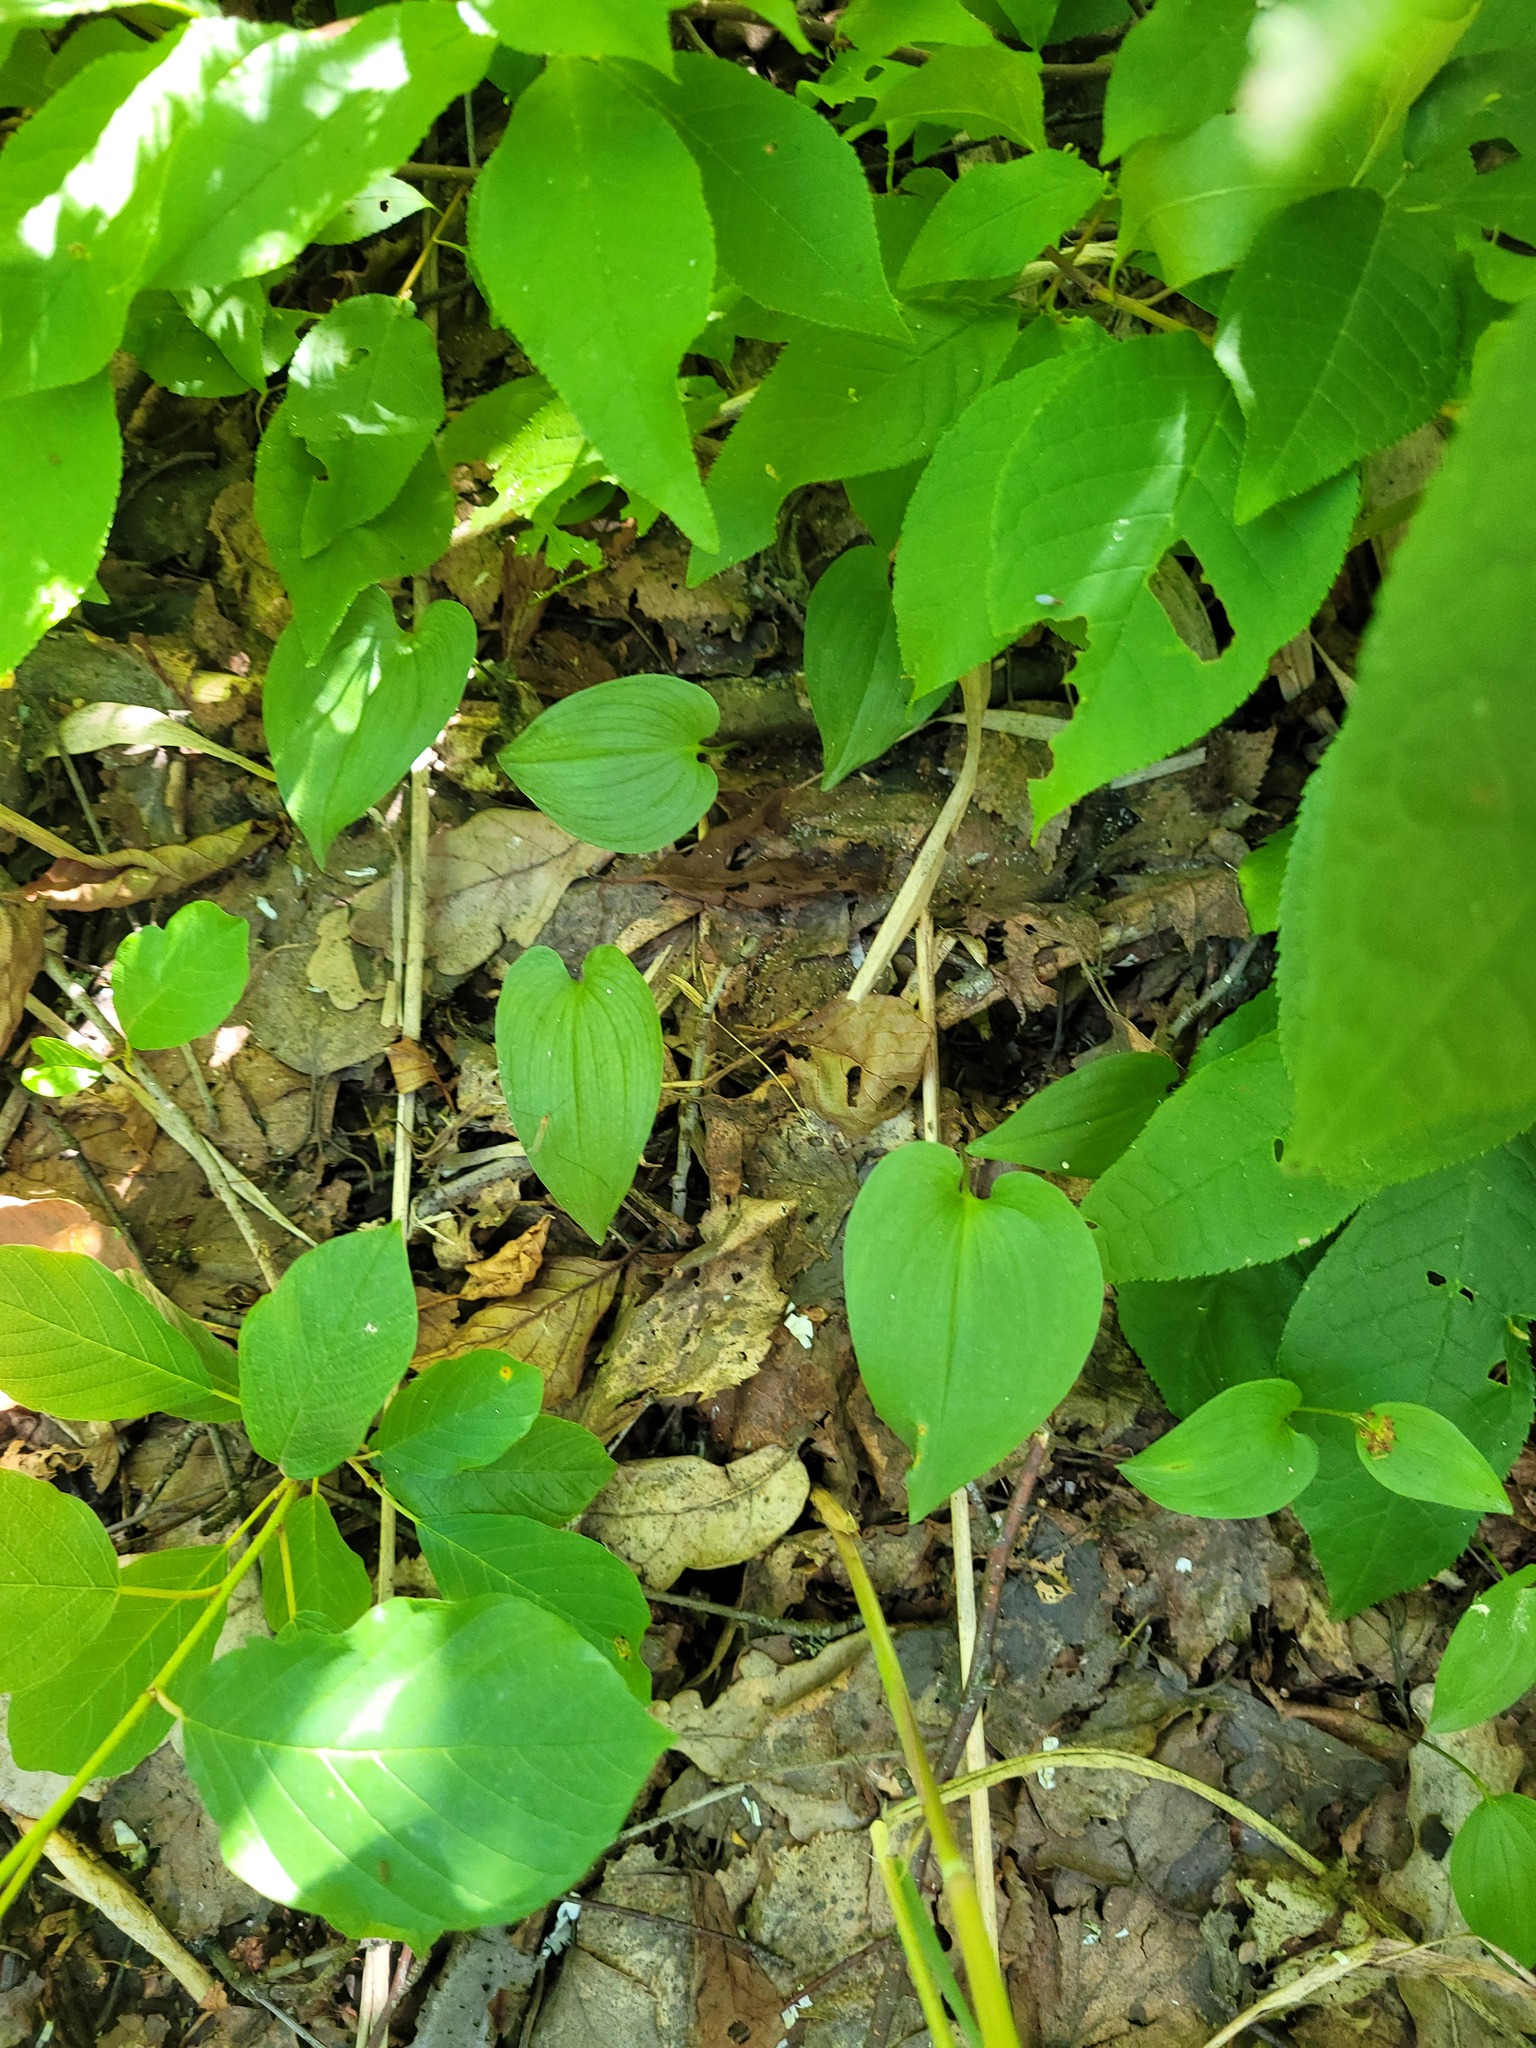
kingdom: Plantae
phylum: Tracheophyta
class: Liliopsida
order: Asparagales
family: Asparagaceae
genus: Maianthemum
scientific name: Maianthemum bifolium
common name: May lily
